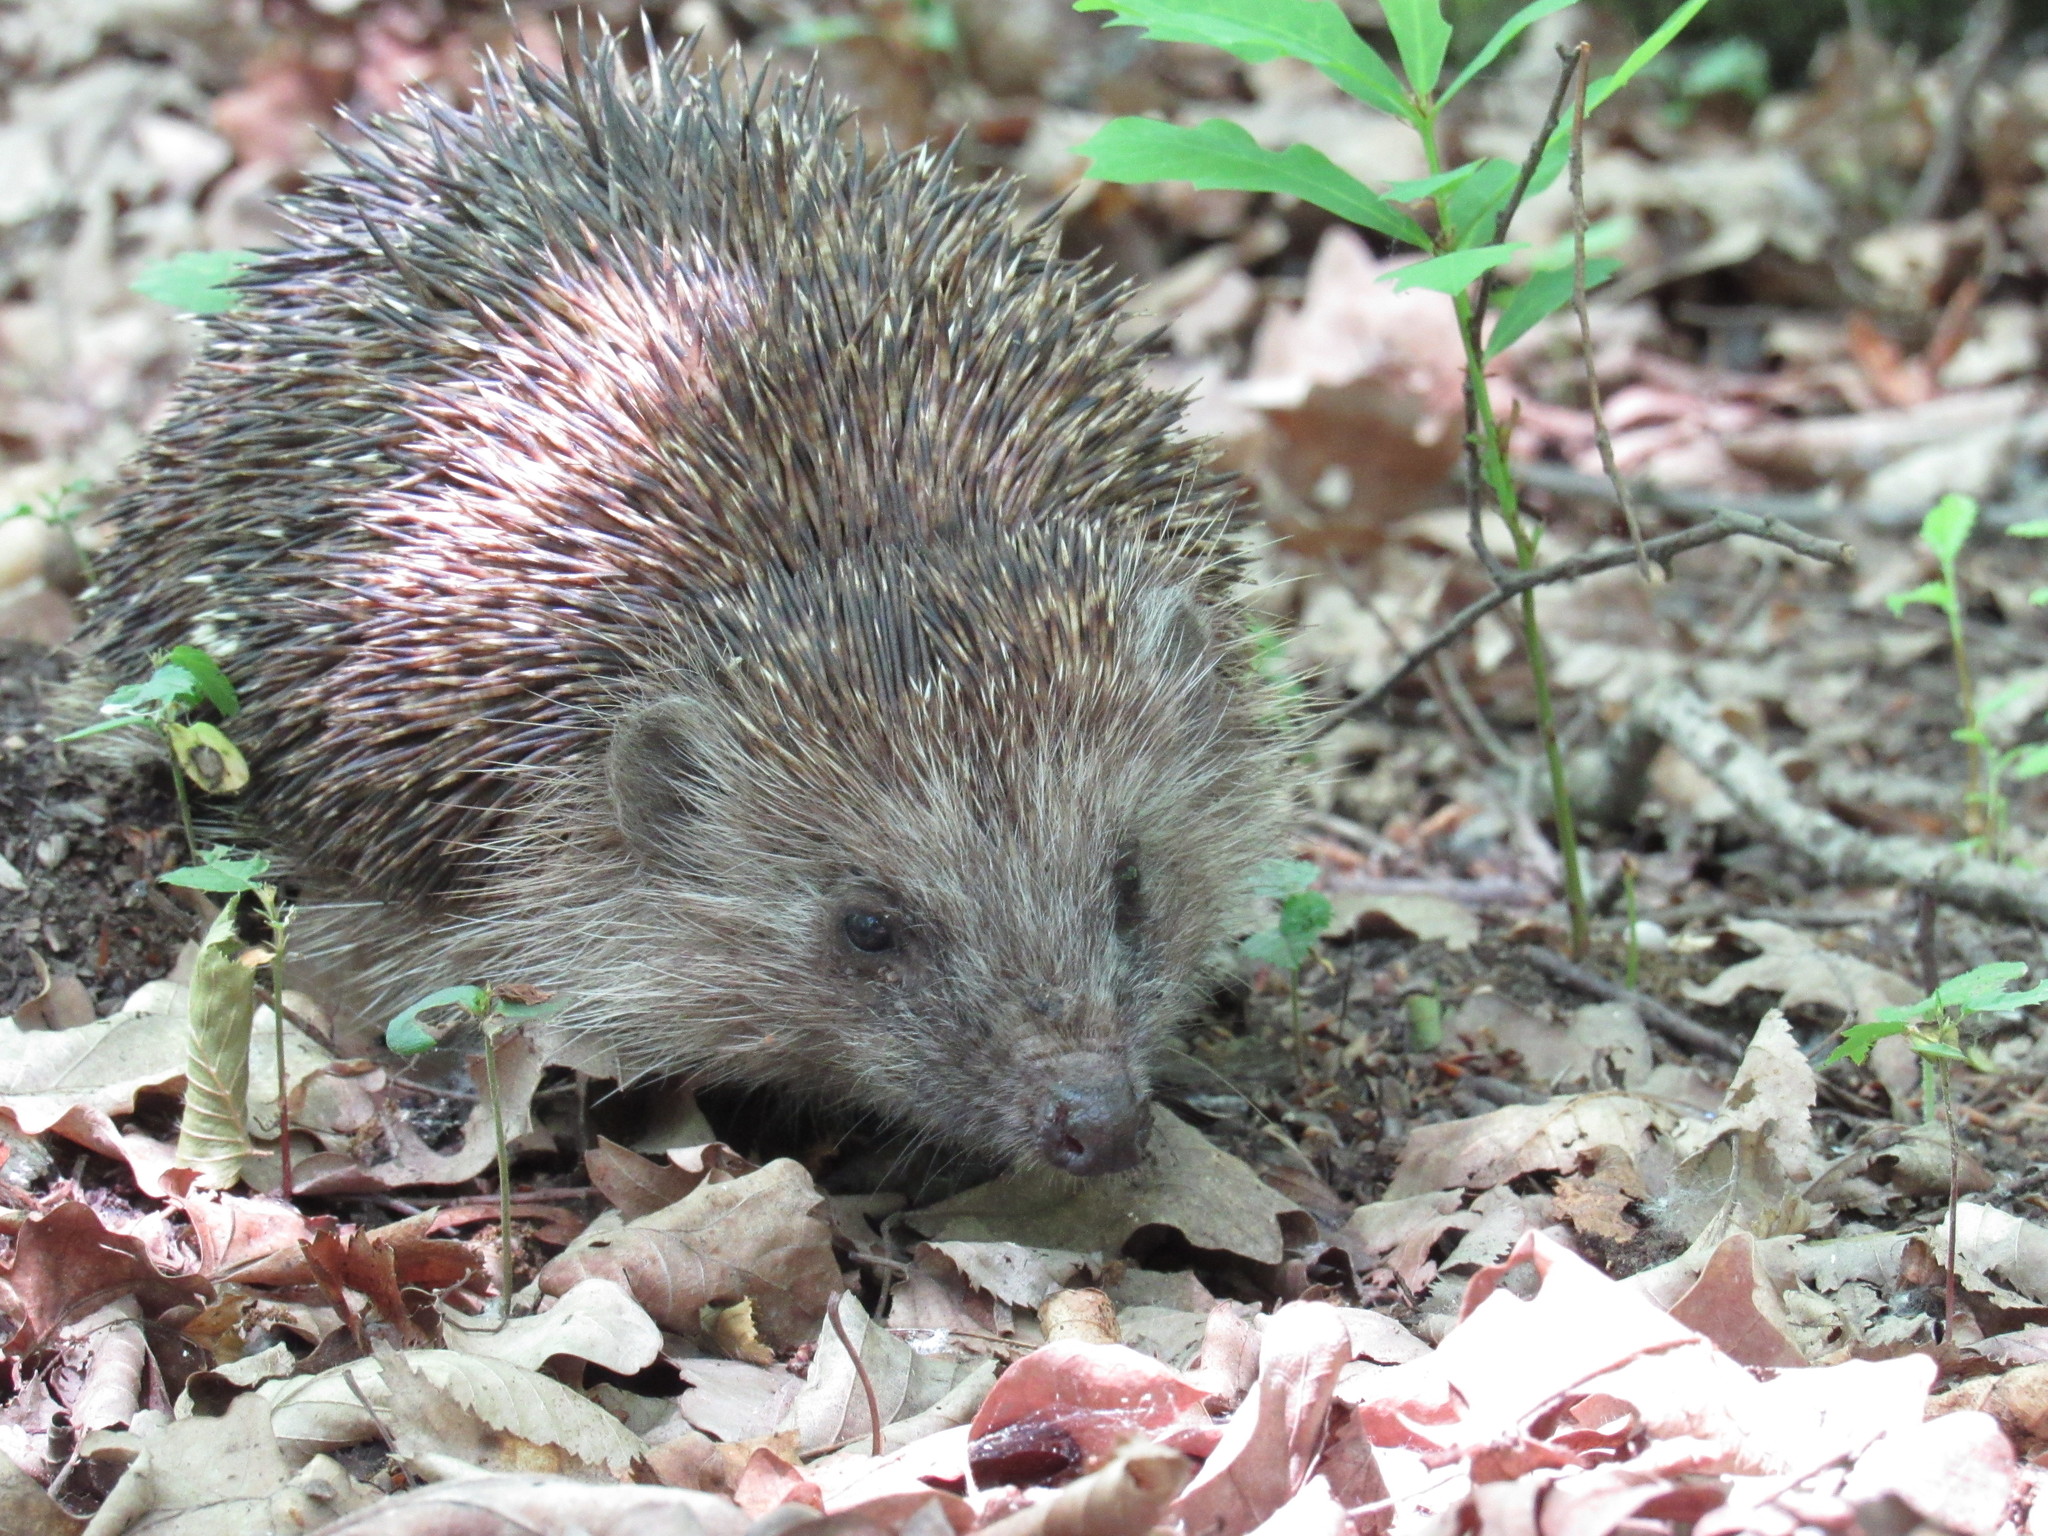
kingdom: Animalia
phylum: Chordata
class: Mammalia
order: Erinaceomorpha
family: Erinaceidae
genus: Erinaceus
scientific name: Erinaceus roumanicus
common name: Northern white-breasted hedgehog
